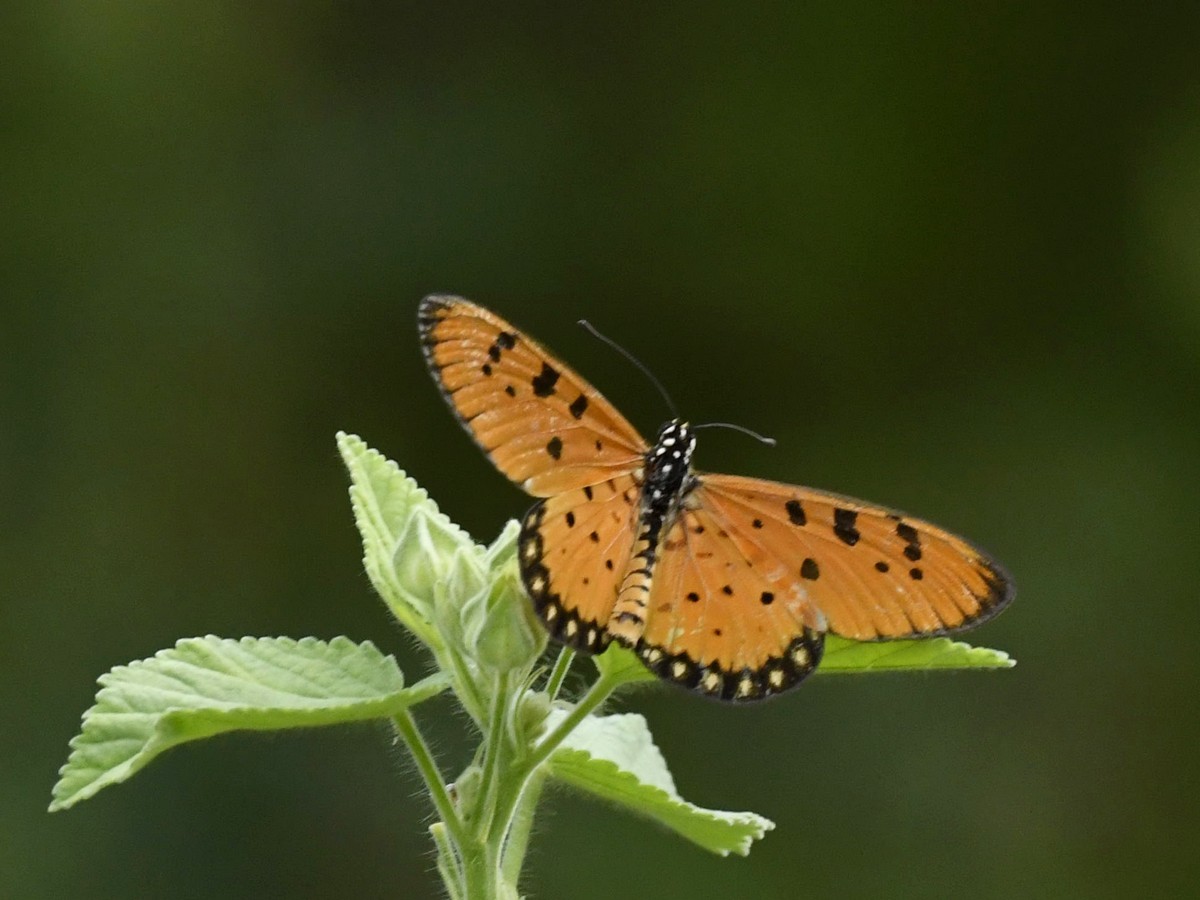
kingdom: Animalia
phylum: Arthropoda
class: Insecta
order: Lepidoptera
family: Nymphalidae
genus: Acraea
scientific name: Acraea terpsicore
